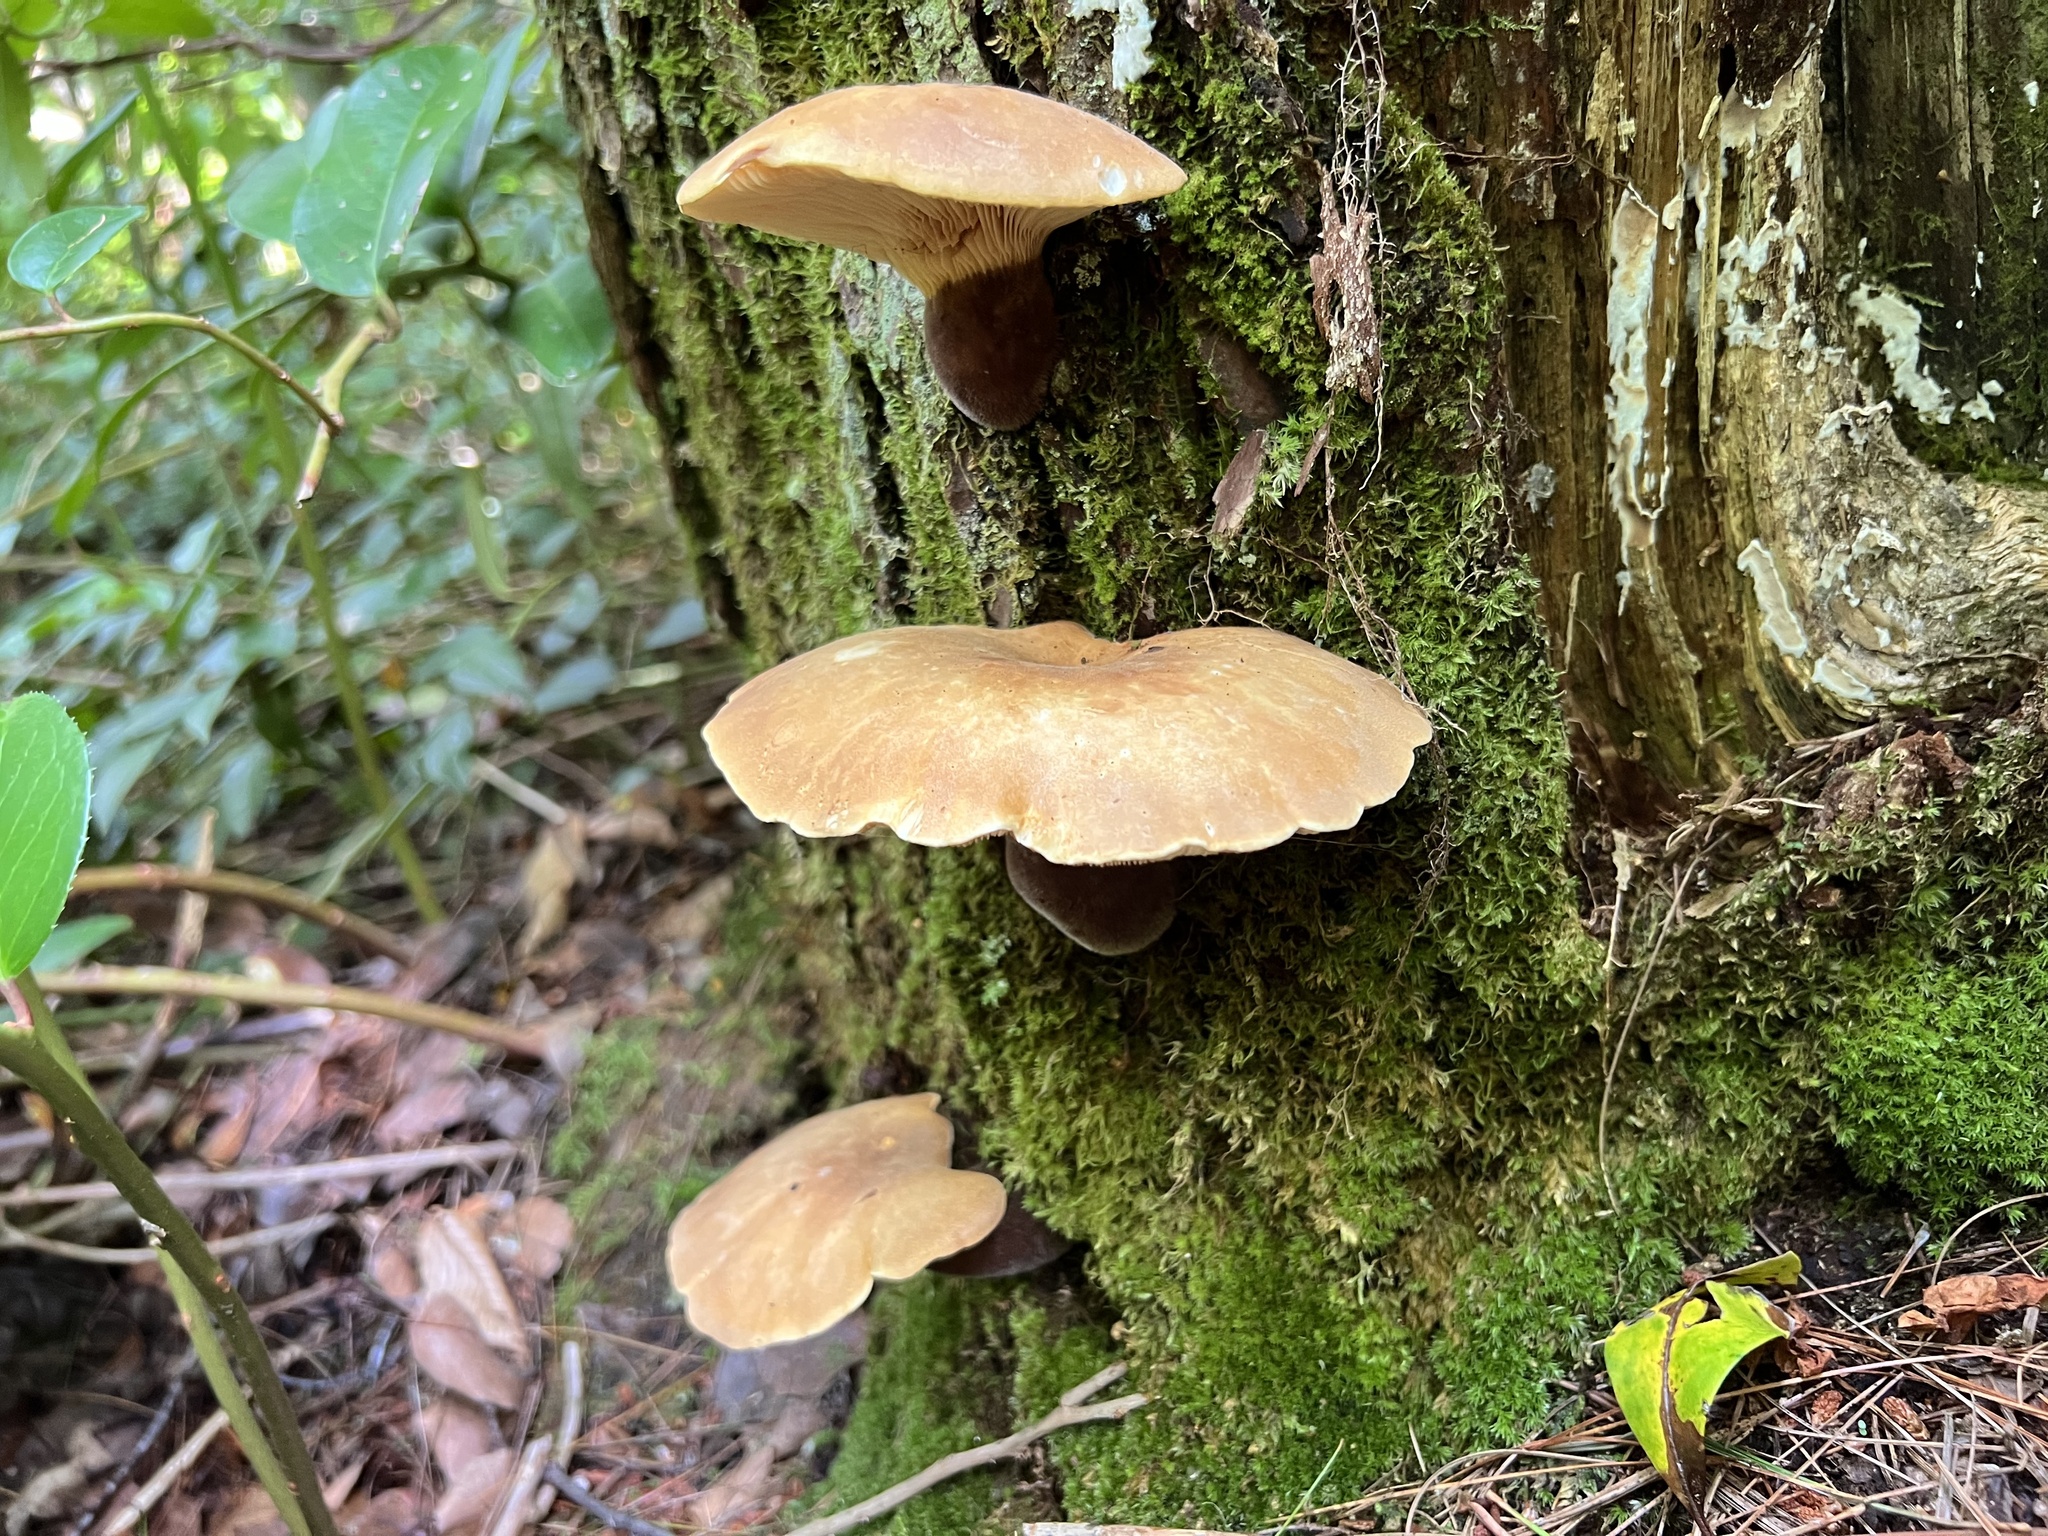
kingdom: Fungi
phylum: Basidiomycota
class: Agaricomycetes
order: Boletales
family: Tapinellaceae
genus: Tapinella
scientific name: Tapinella atrotomentosa
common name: Velvet rollrim
